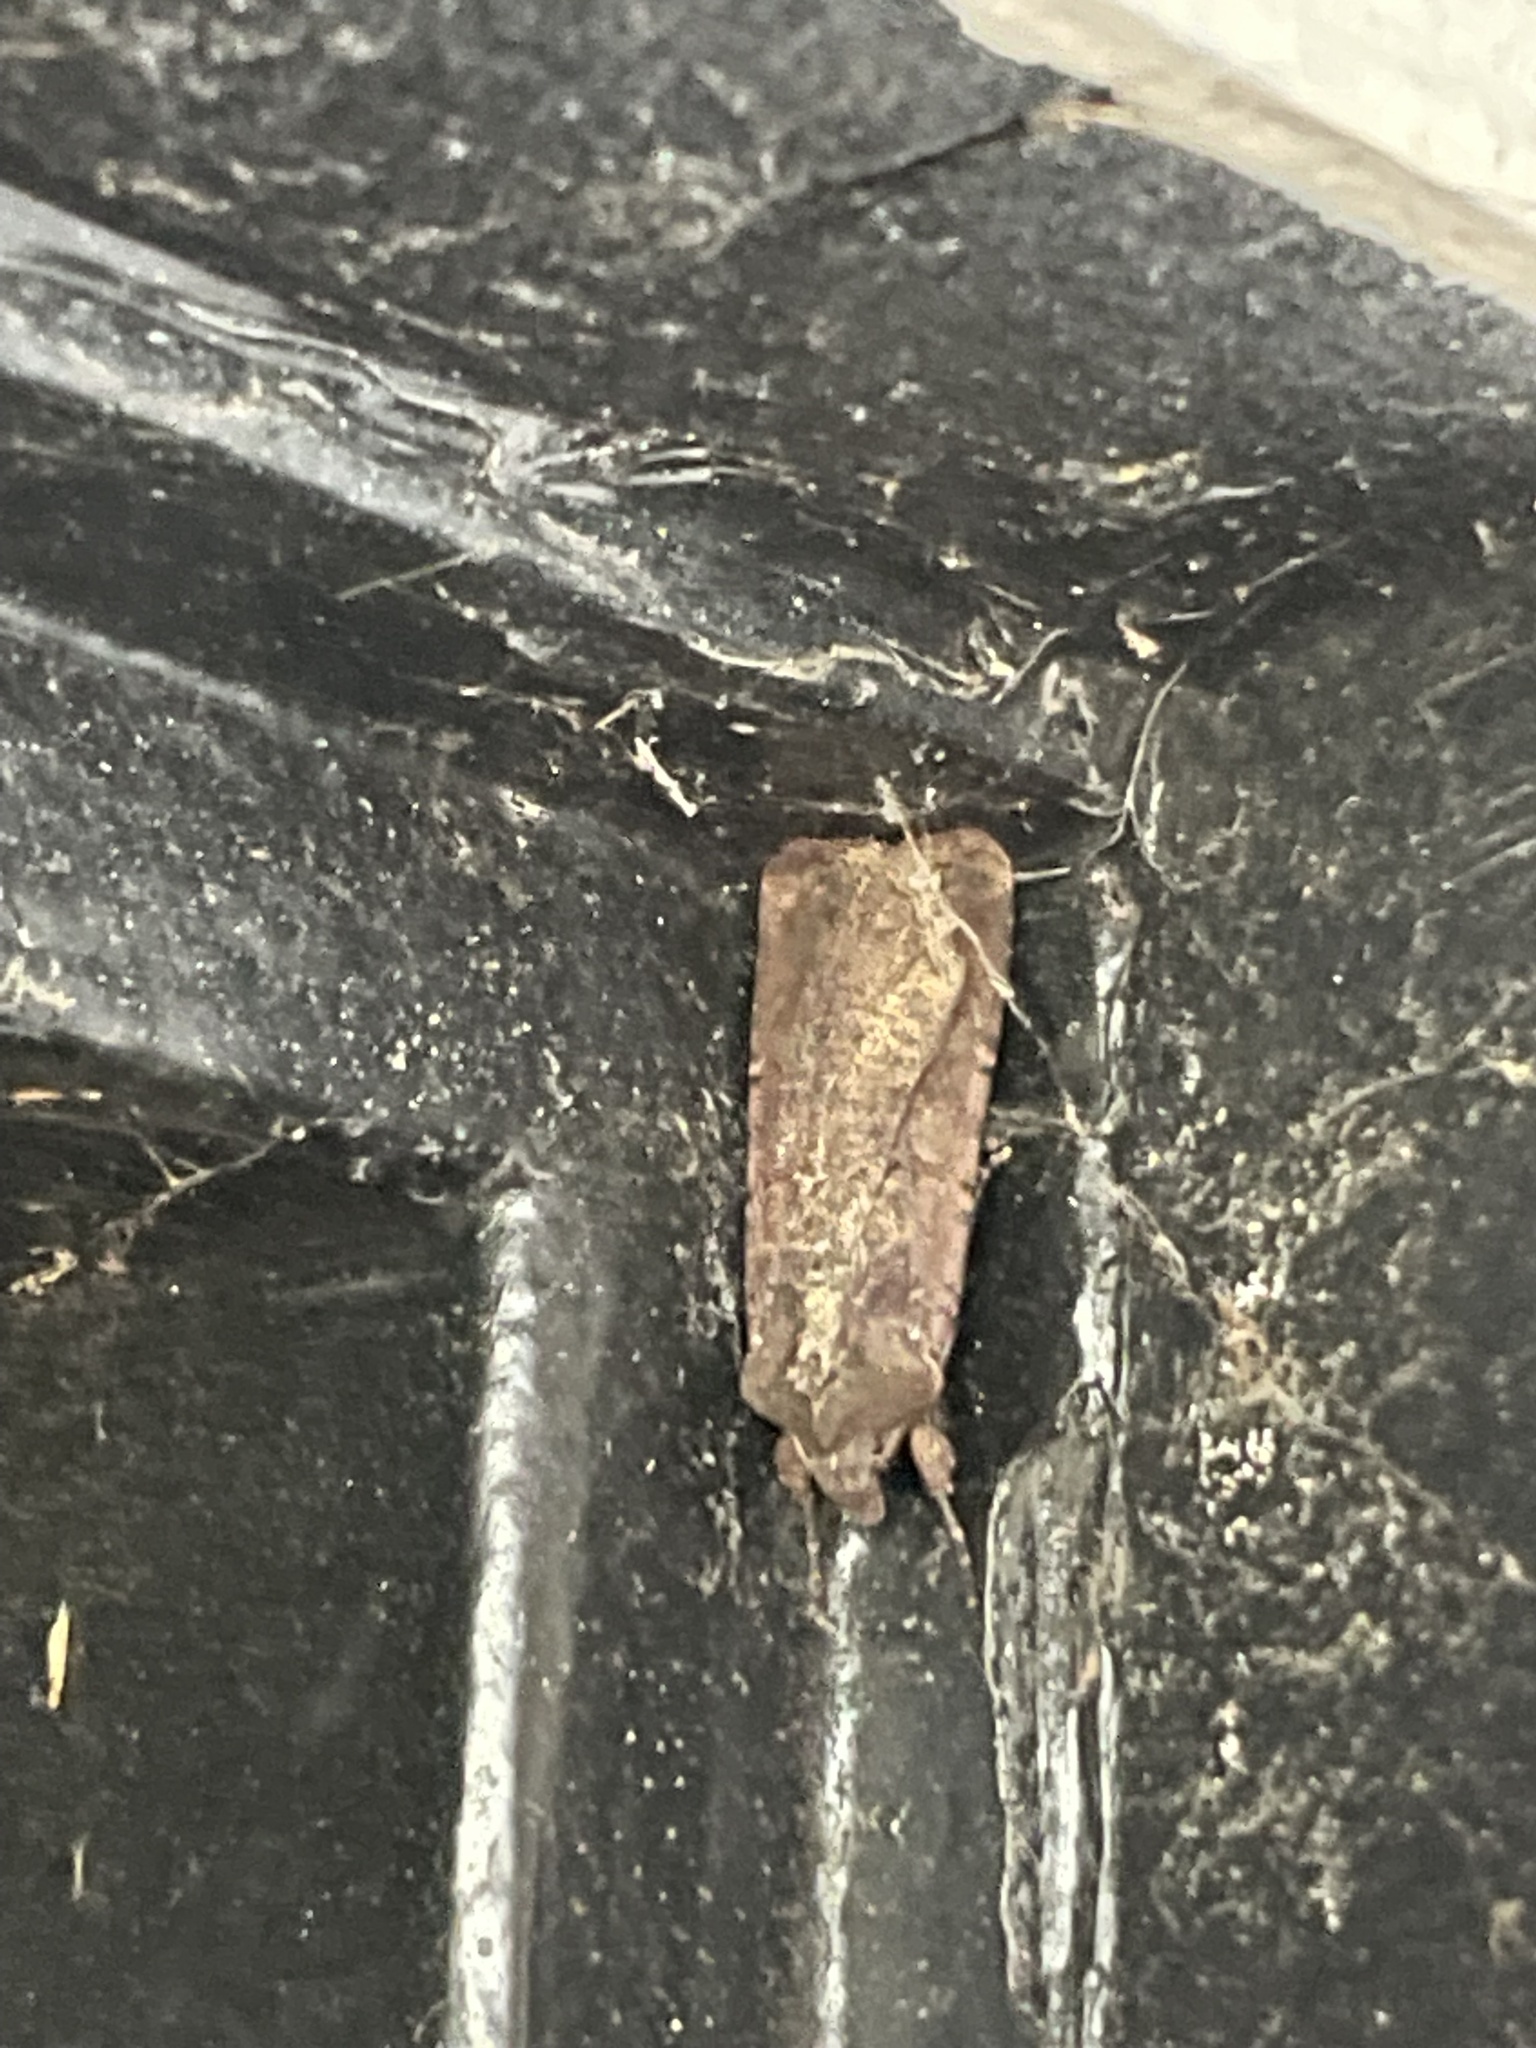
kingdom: Animalia
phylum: Arthropoda
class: Insecta
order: Lepidoptera
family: Noctuidae
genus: Peridroma
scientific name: Peridroma saucia
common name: Pearly underwing
